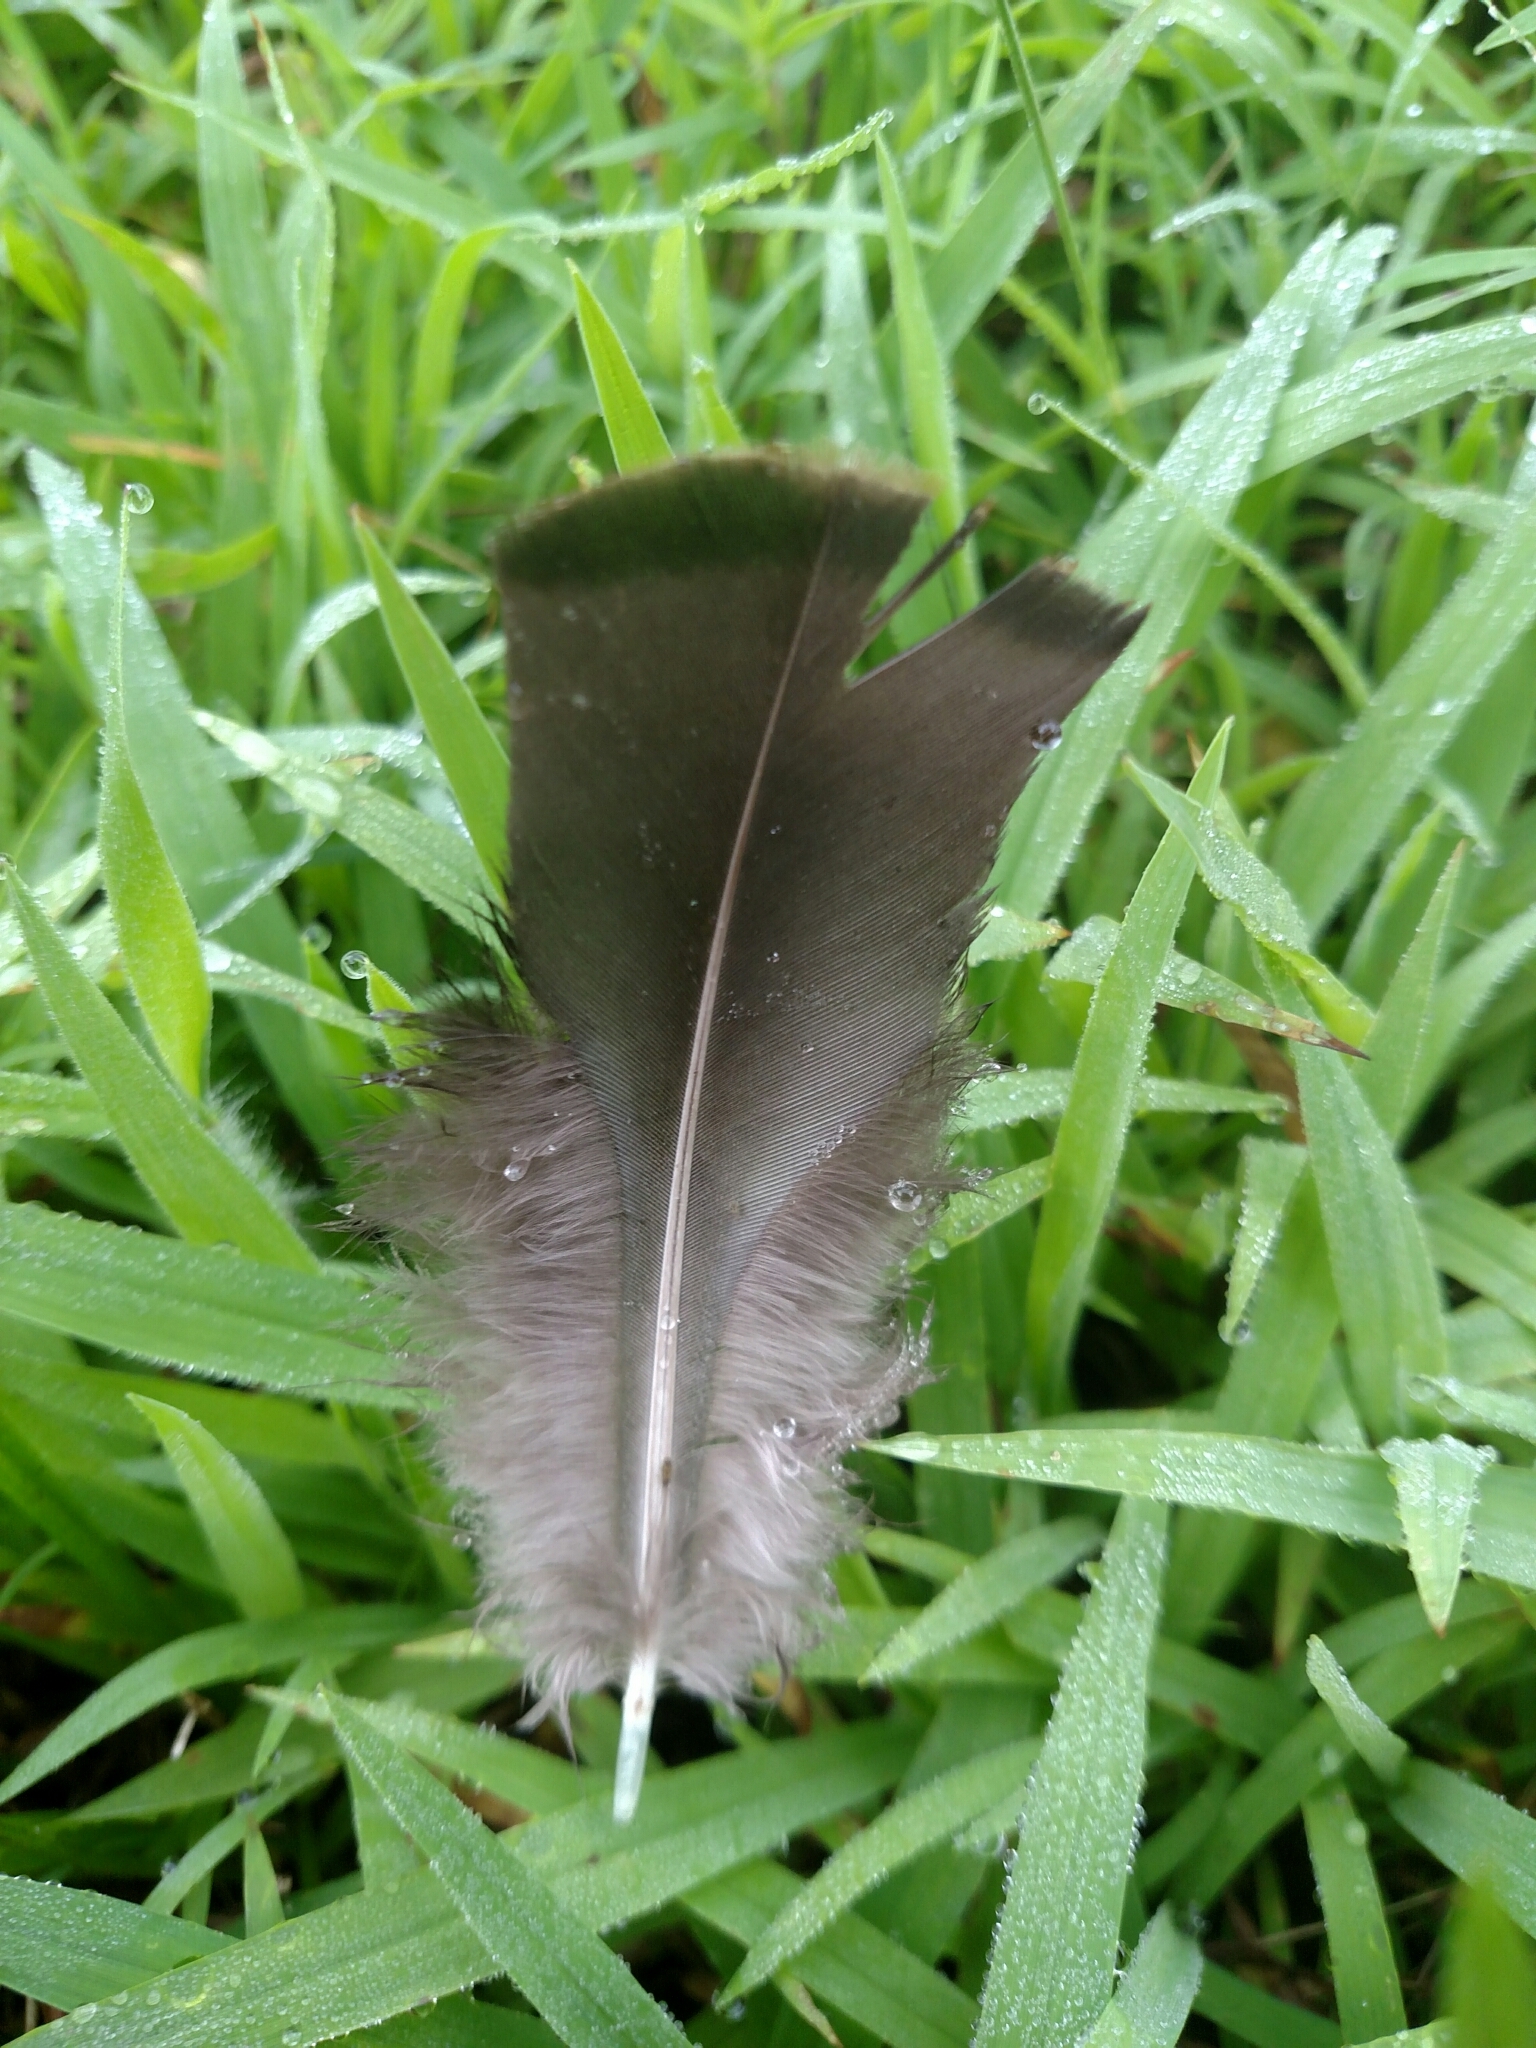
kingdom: Animalia
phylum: Chordata
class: Aves
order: Galliformes
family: Phasianidae
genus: Meleagris
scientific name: Meleagris gallopavo
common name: Wild turkey
